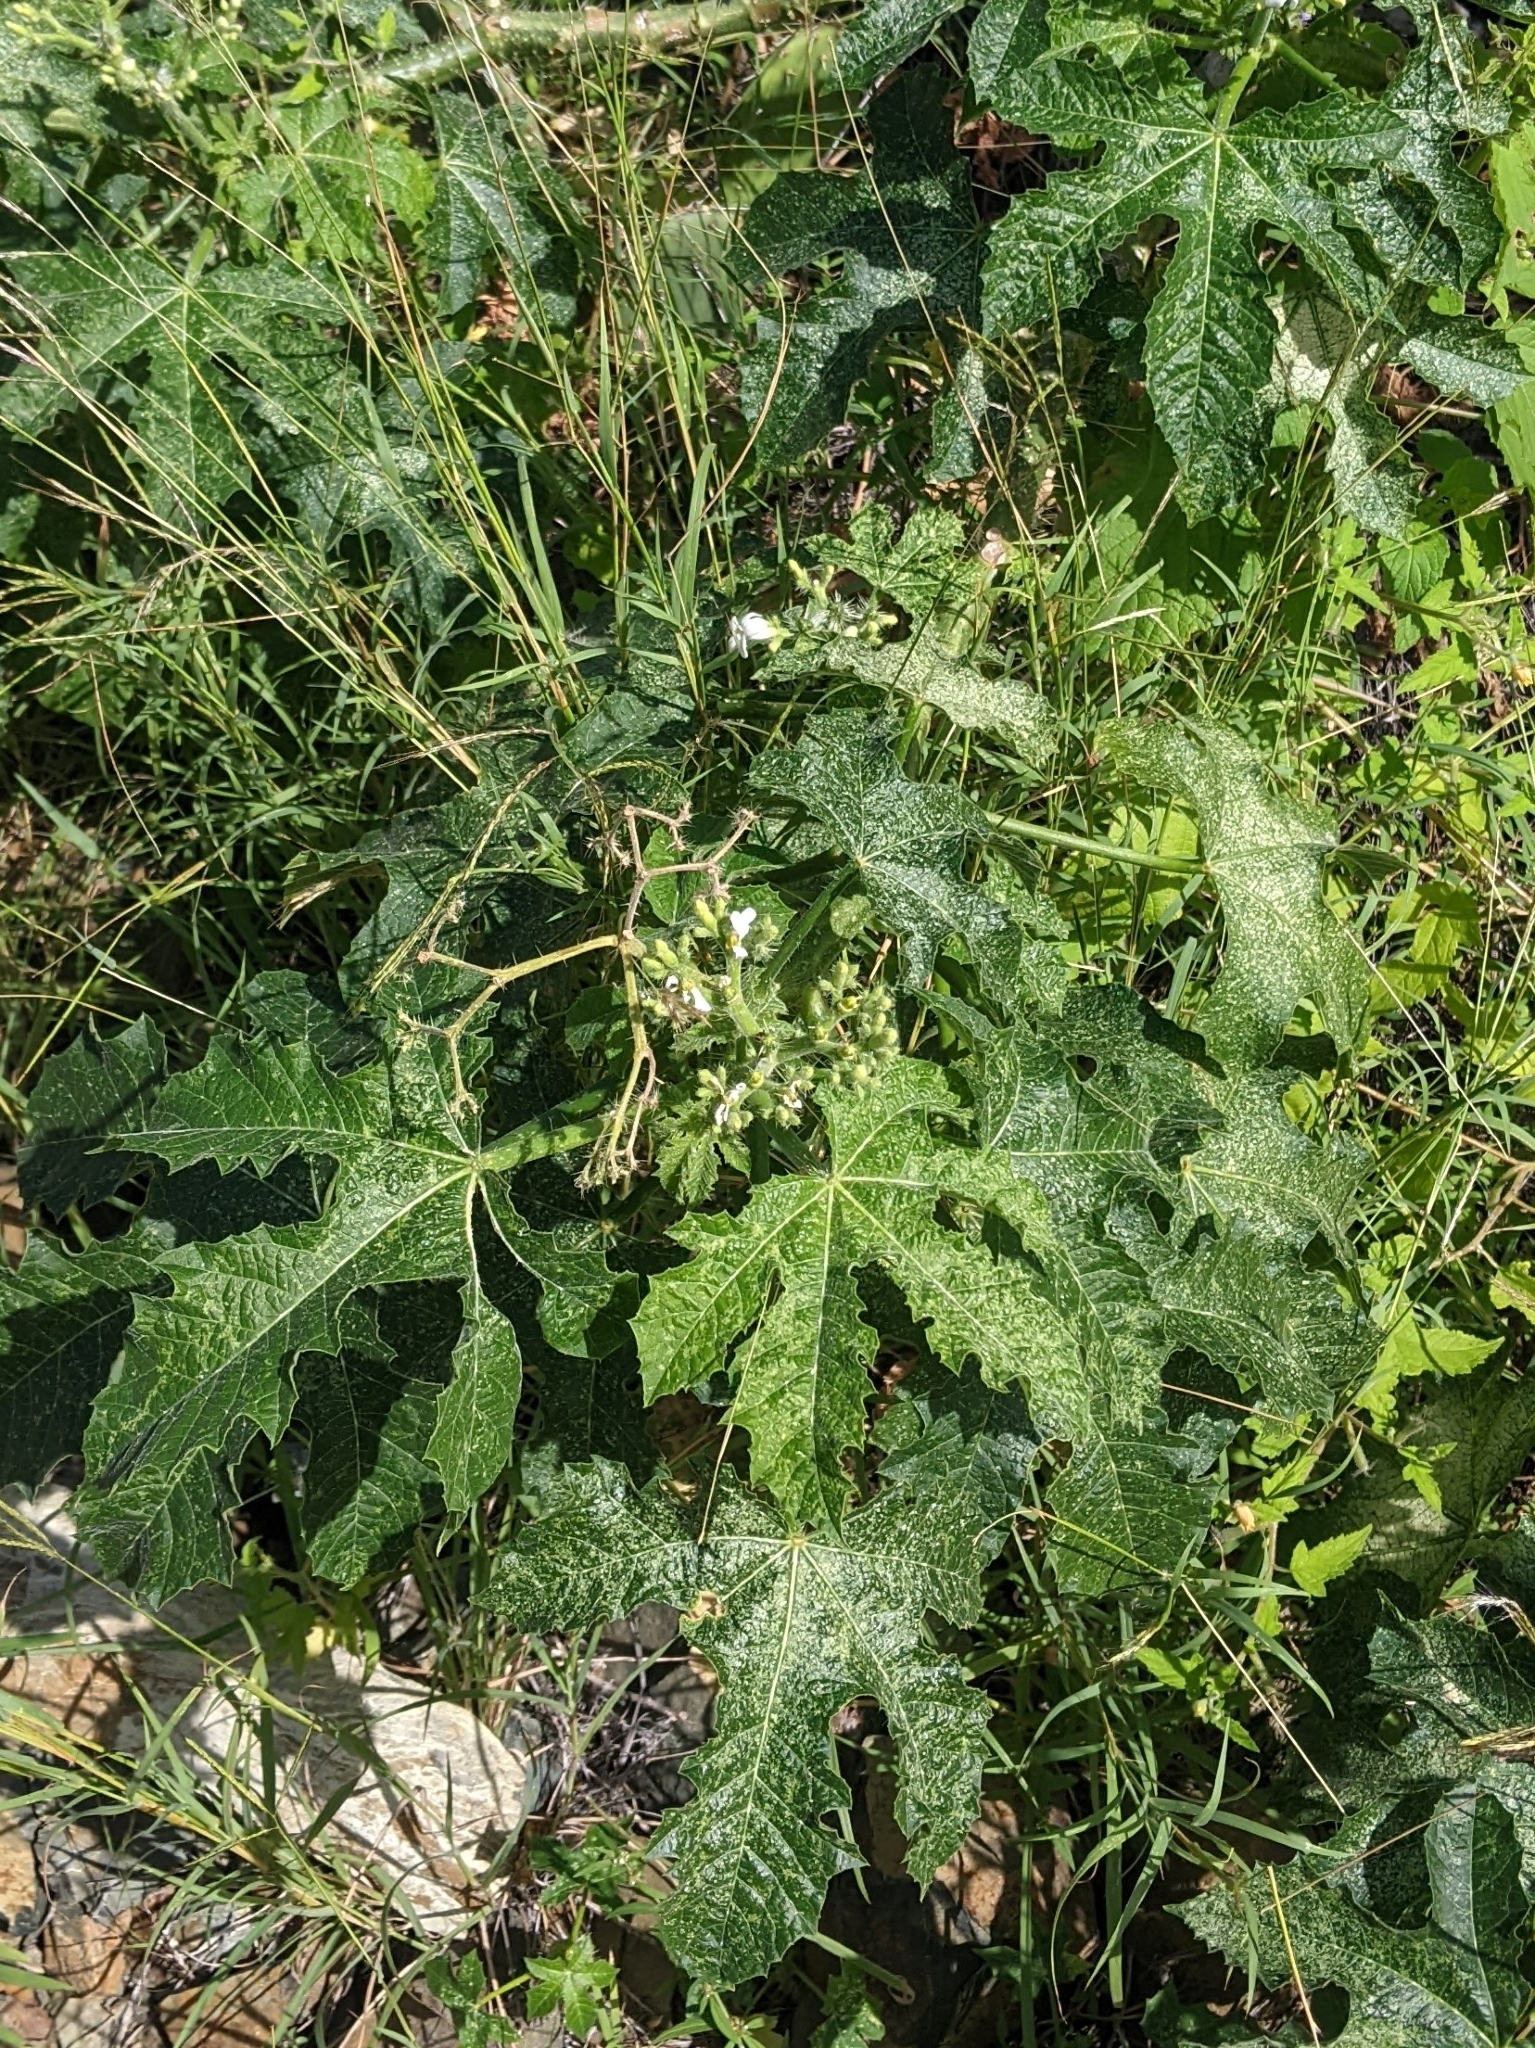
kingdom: Plantae
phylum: Tracheophyta
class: Magnoliopsida
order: Malpighiales
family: Euphorbiaceae
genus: Cnidoscolus
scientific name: Cnidoscolus urens
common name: Bull-nettle
